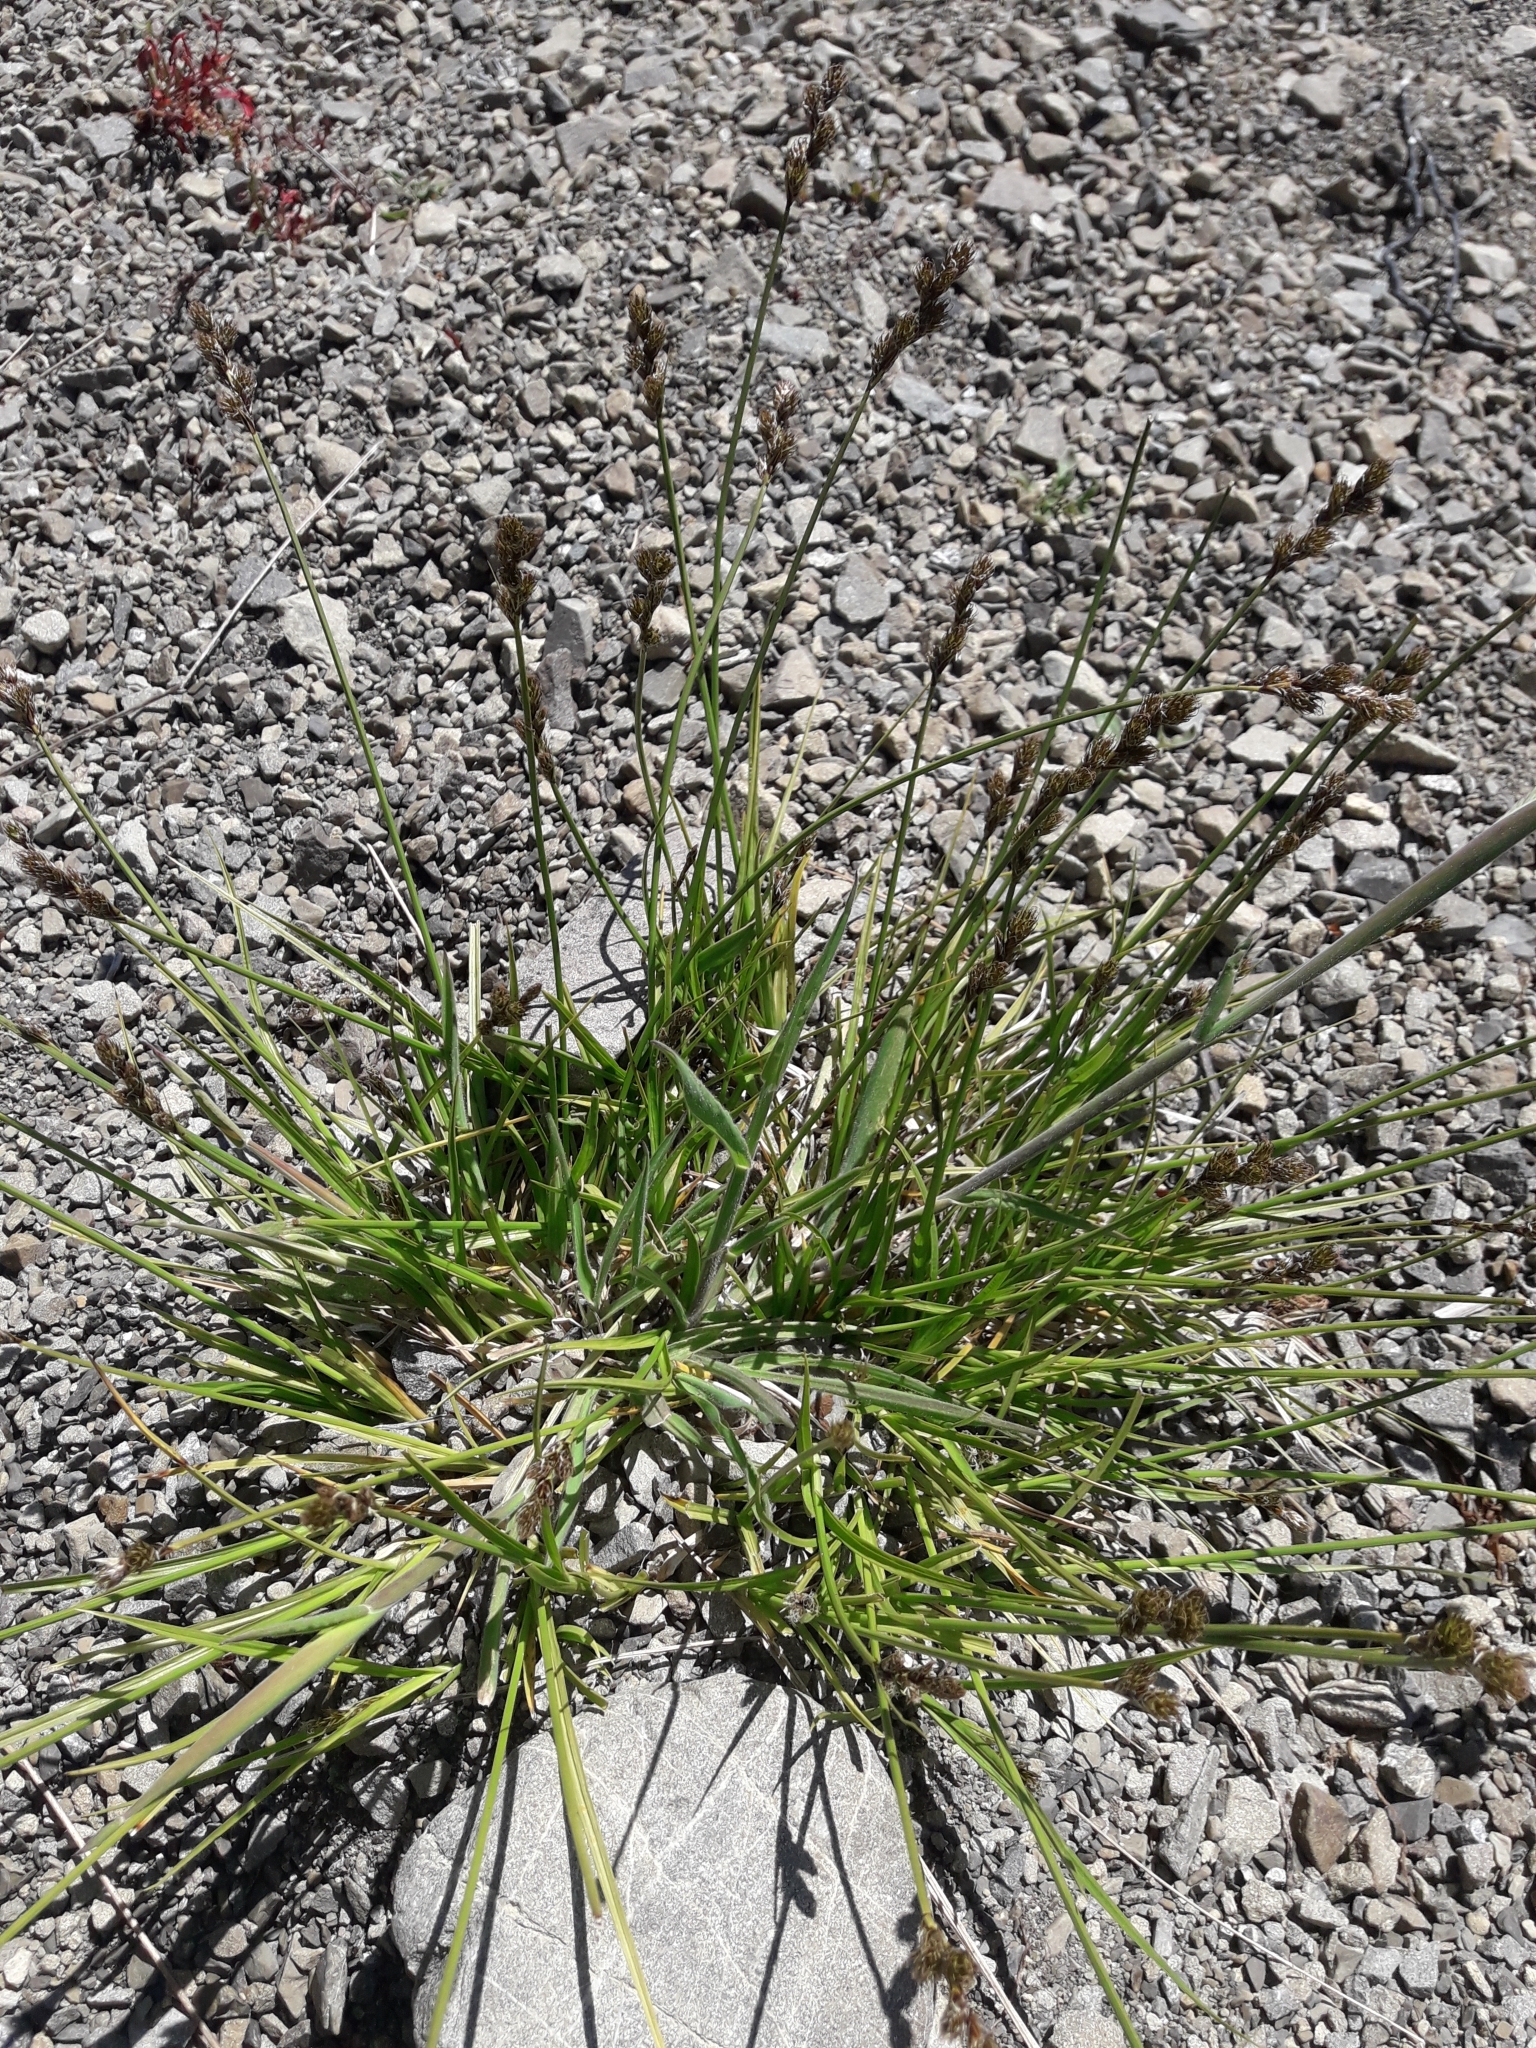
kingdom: Plantae
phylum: Tracheophyta
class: Liliopsida
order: Poales
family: Cyperaceae
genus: Carex
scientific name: Carex leporina
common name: Oval sedge
